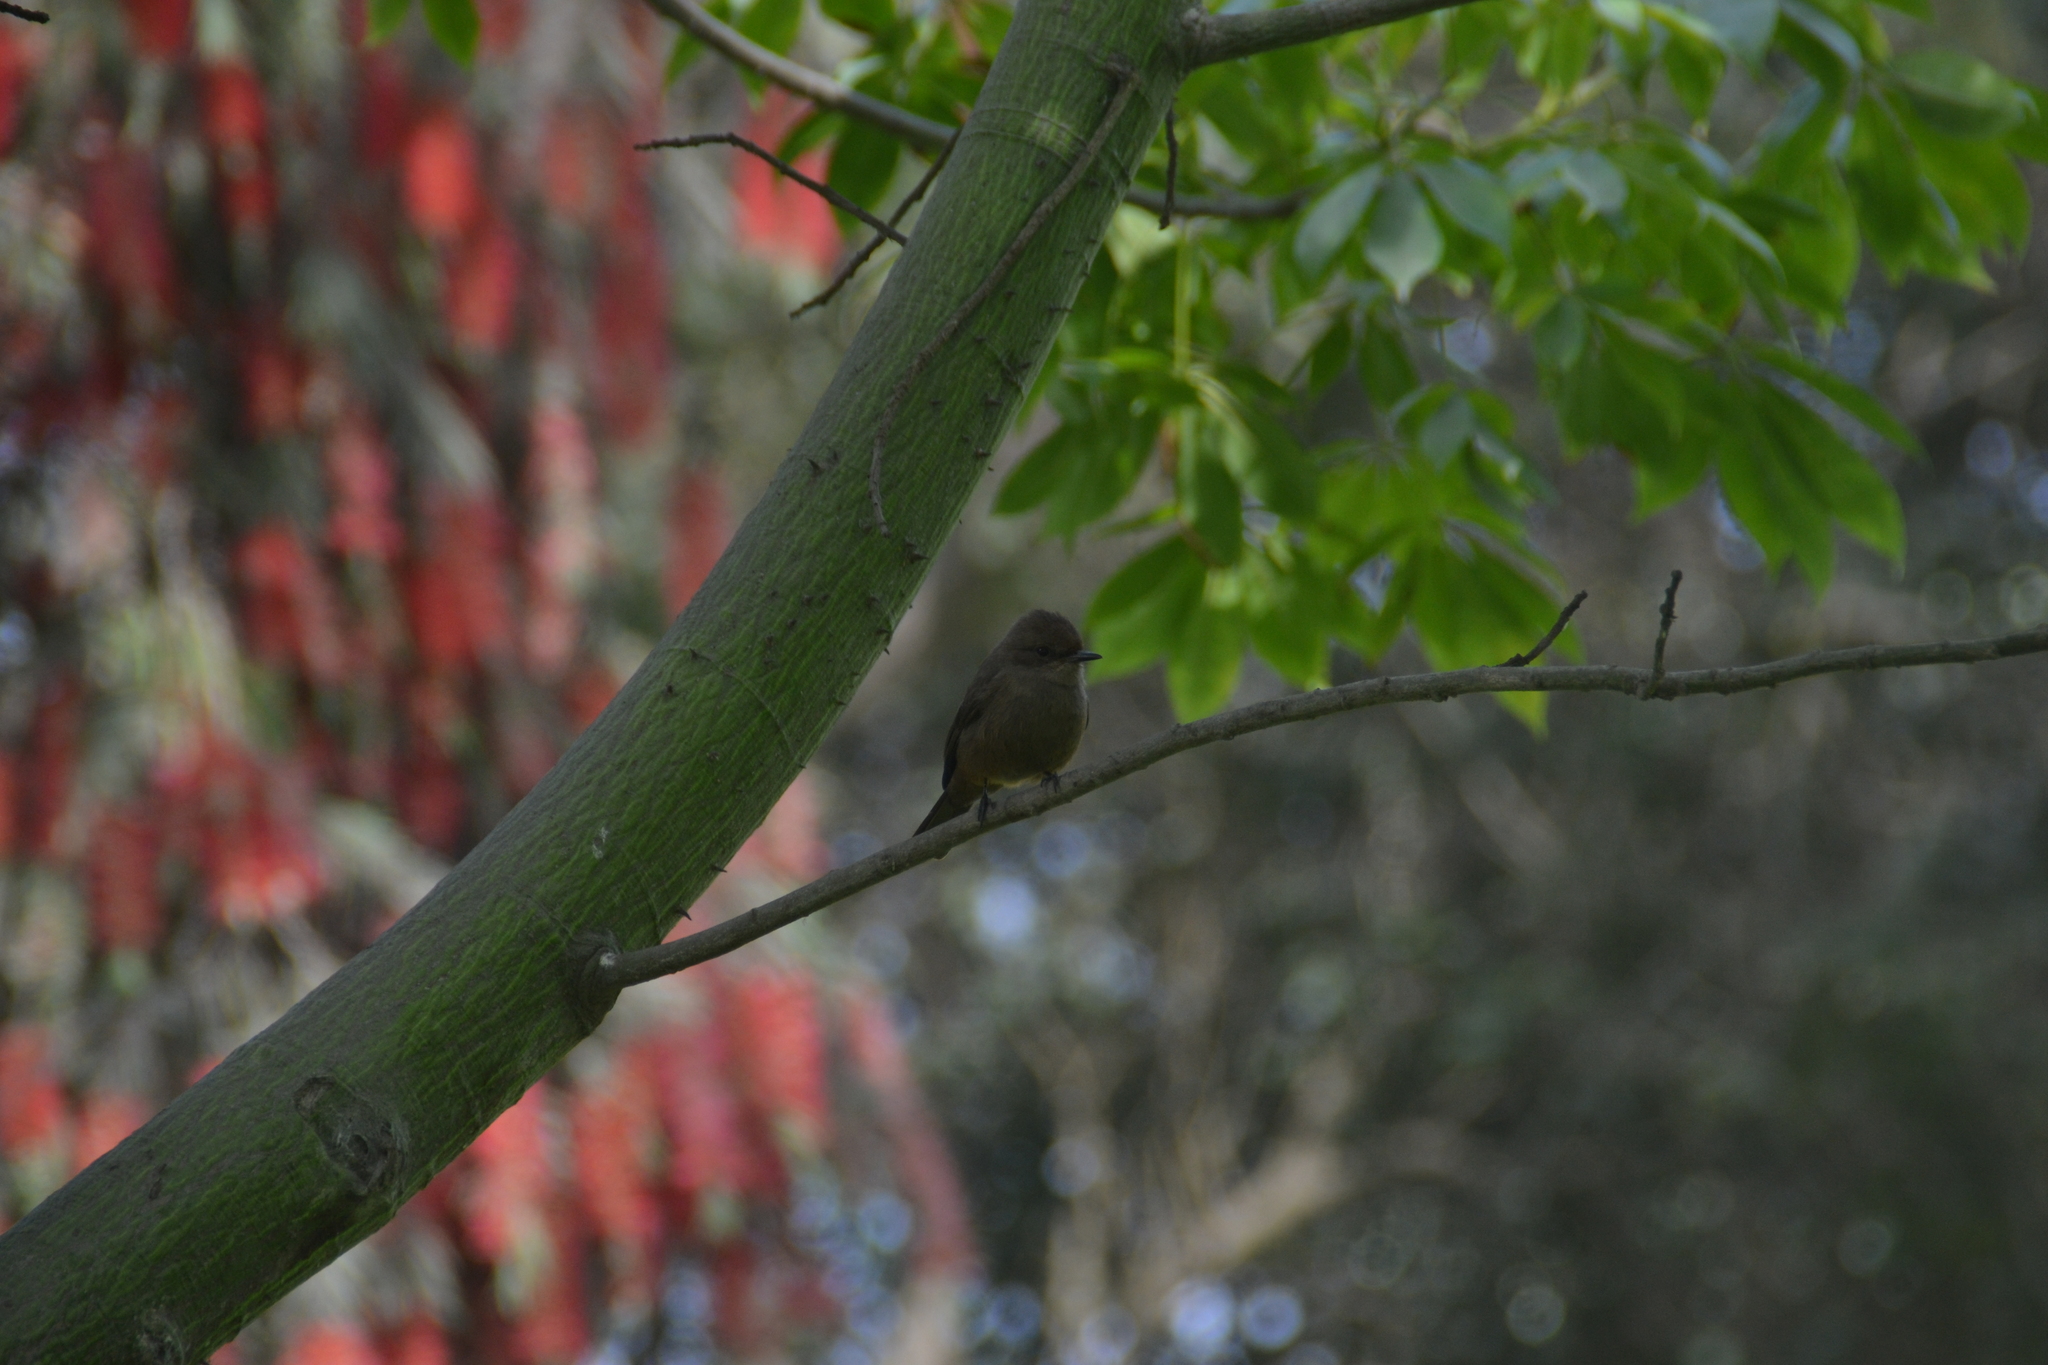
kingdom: Animalia
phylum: Chordata
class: Aves
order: Passeriformes
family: Tyrannidae
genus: Pyrocephalus
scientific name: Pyrocephalus rubinus
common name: Vermilion flycatcher
